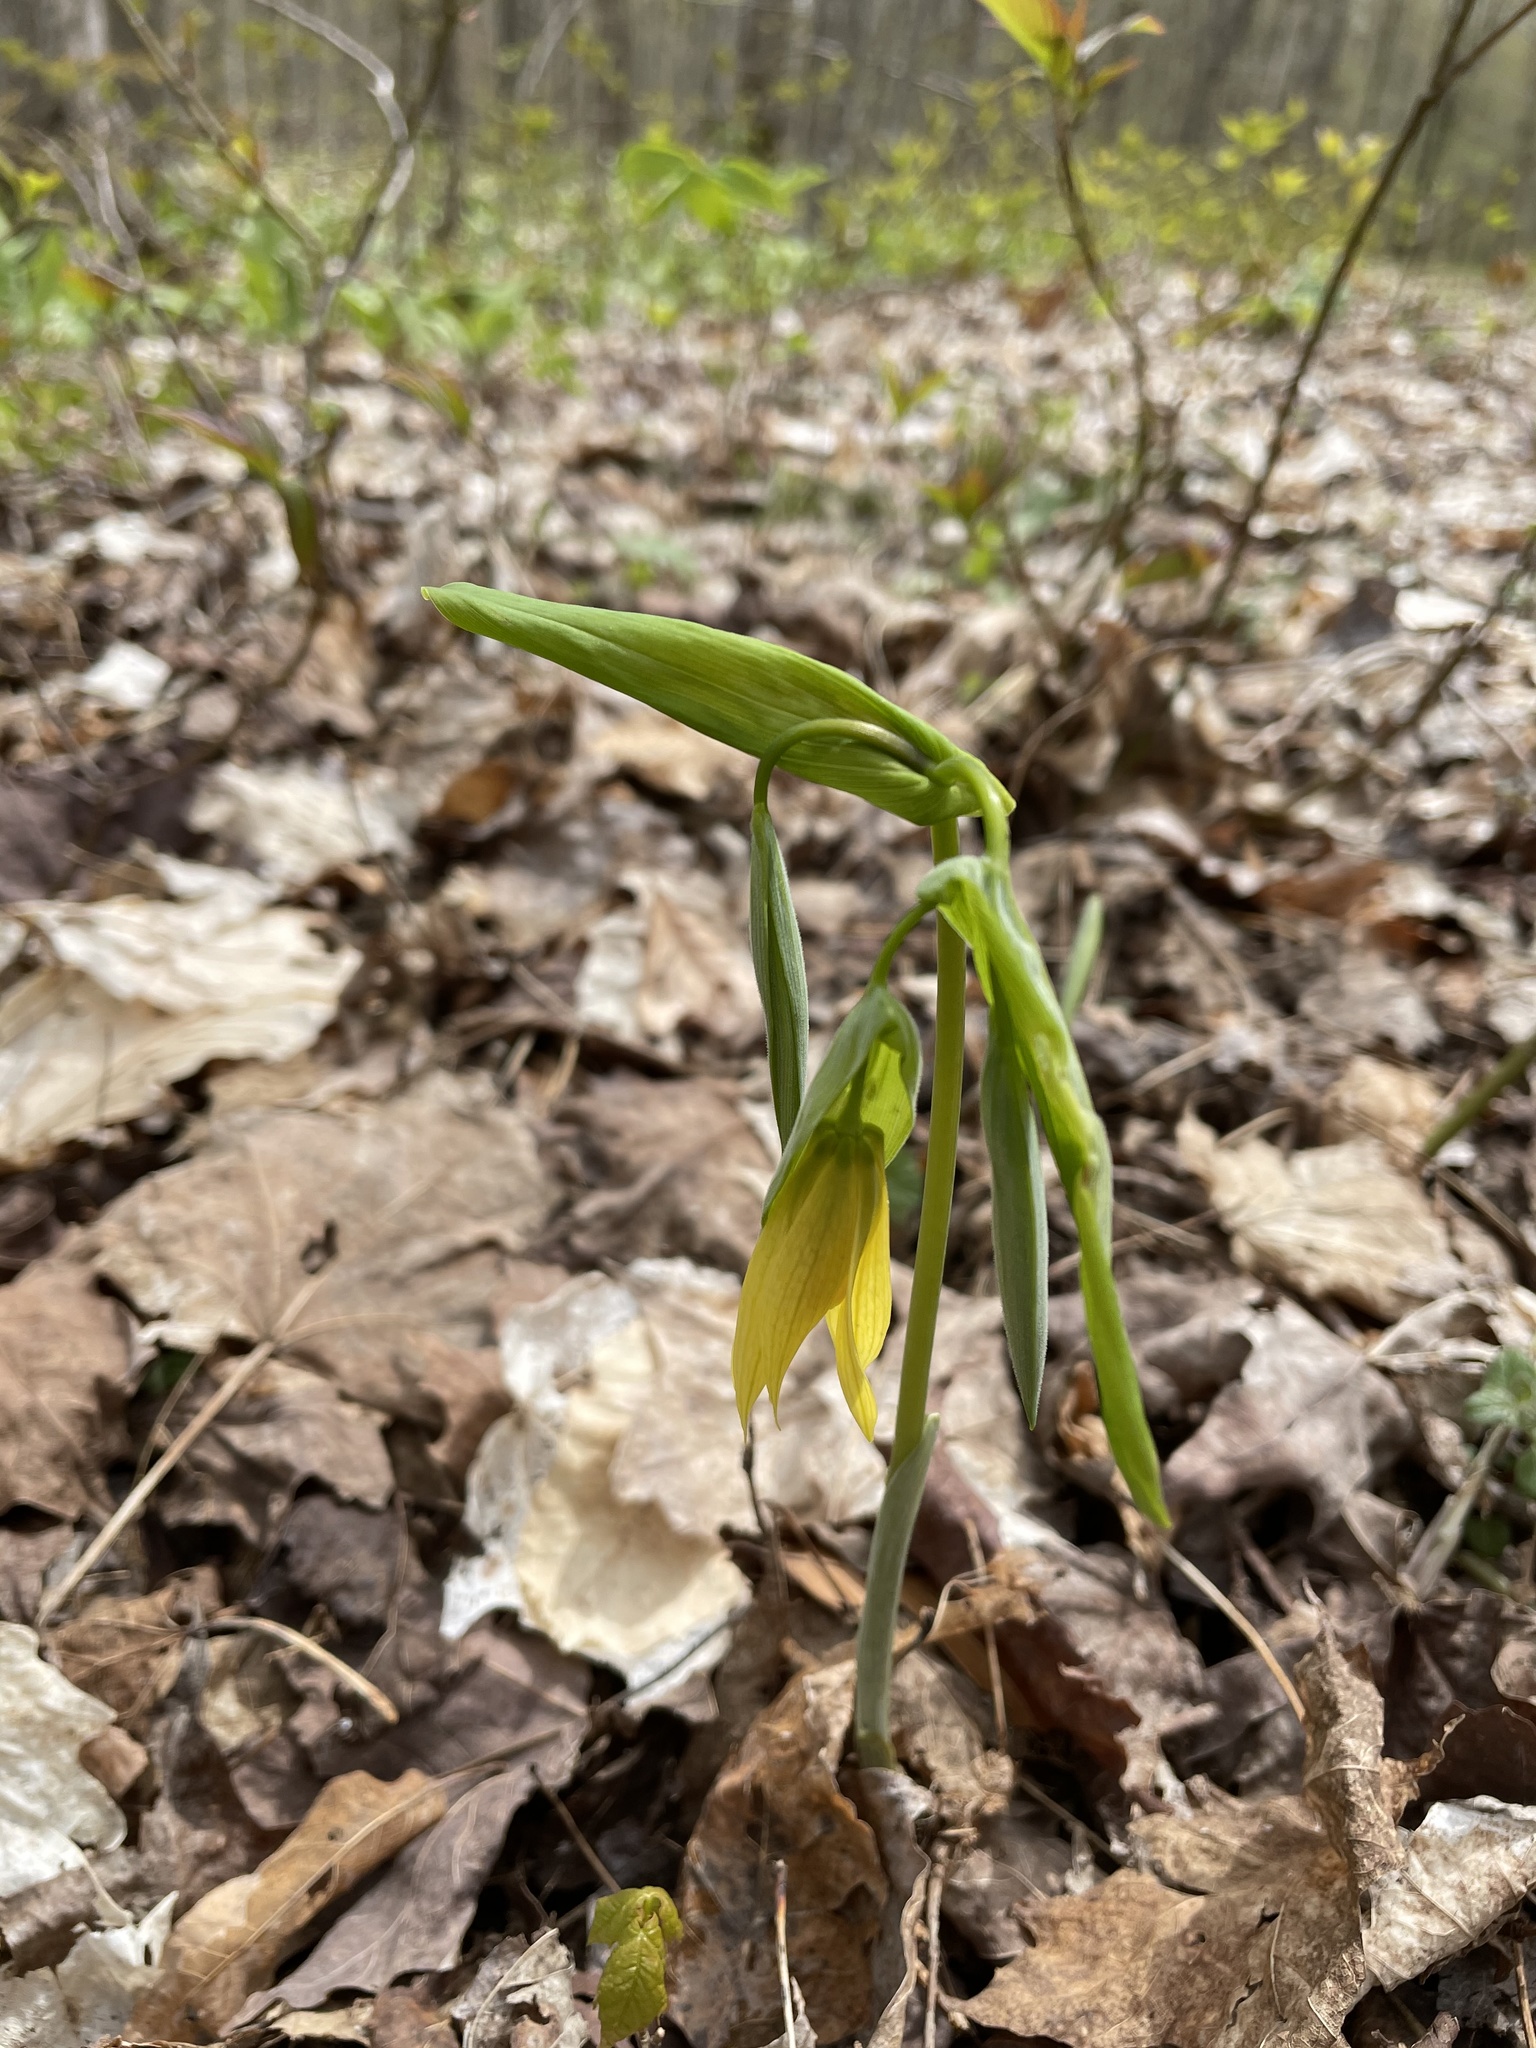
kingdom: Plantae
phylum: Tracheophyta
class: Liliopsida
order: Liliales
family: Colchicaceae
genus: Uvularia
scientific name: Uvularia grandiflora
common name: Bellwort
